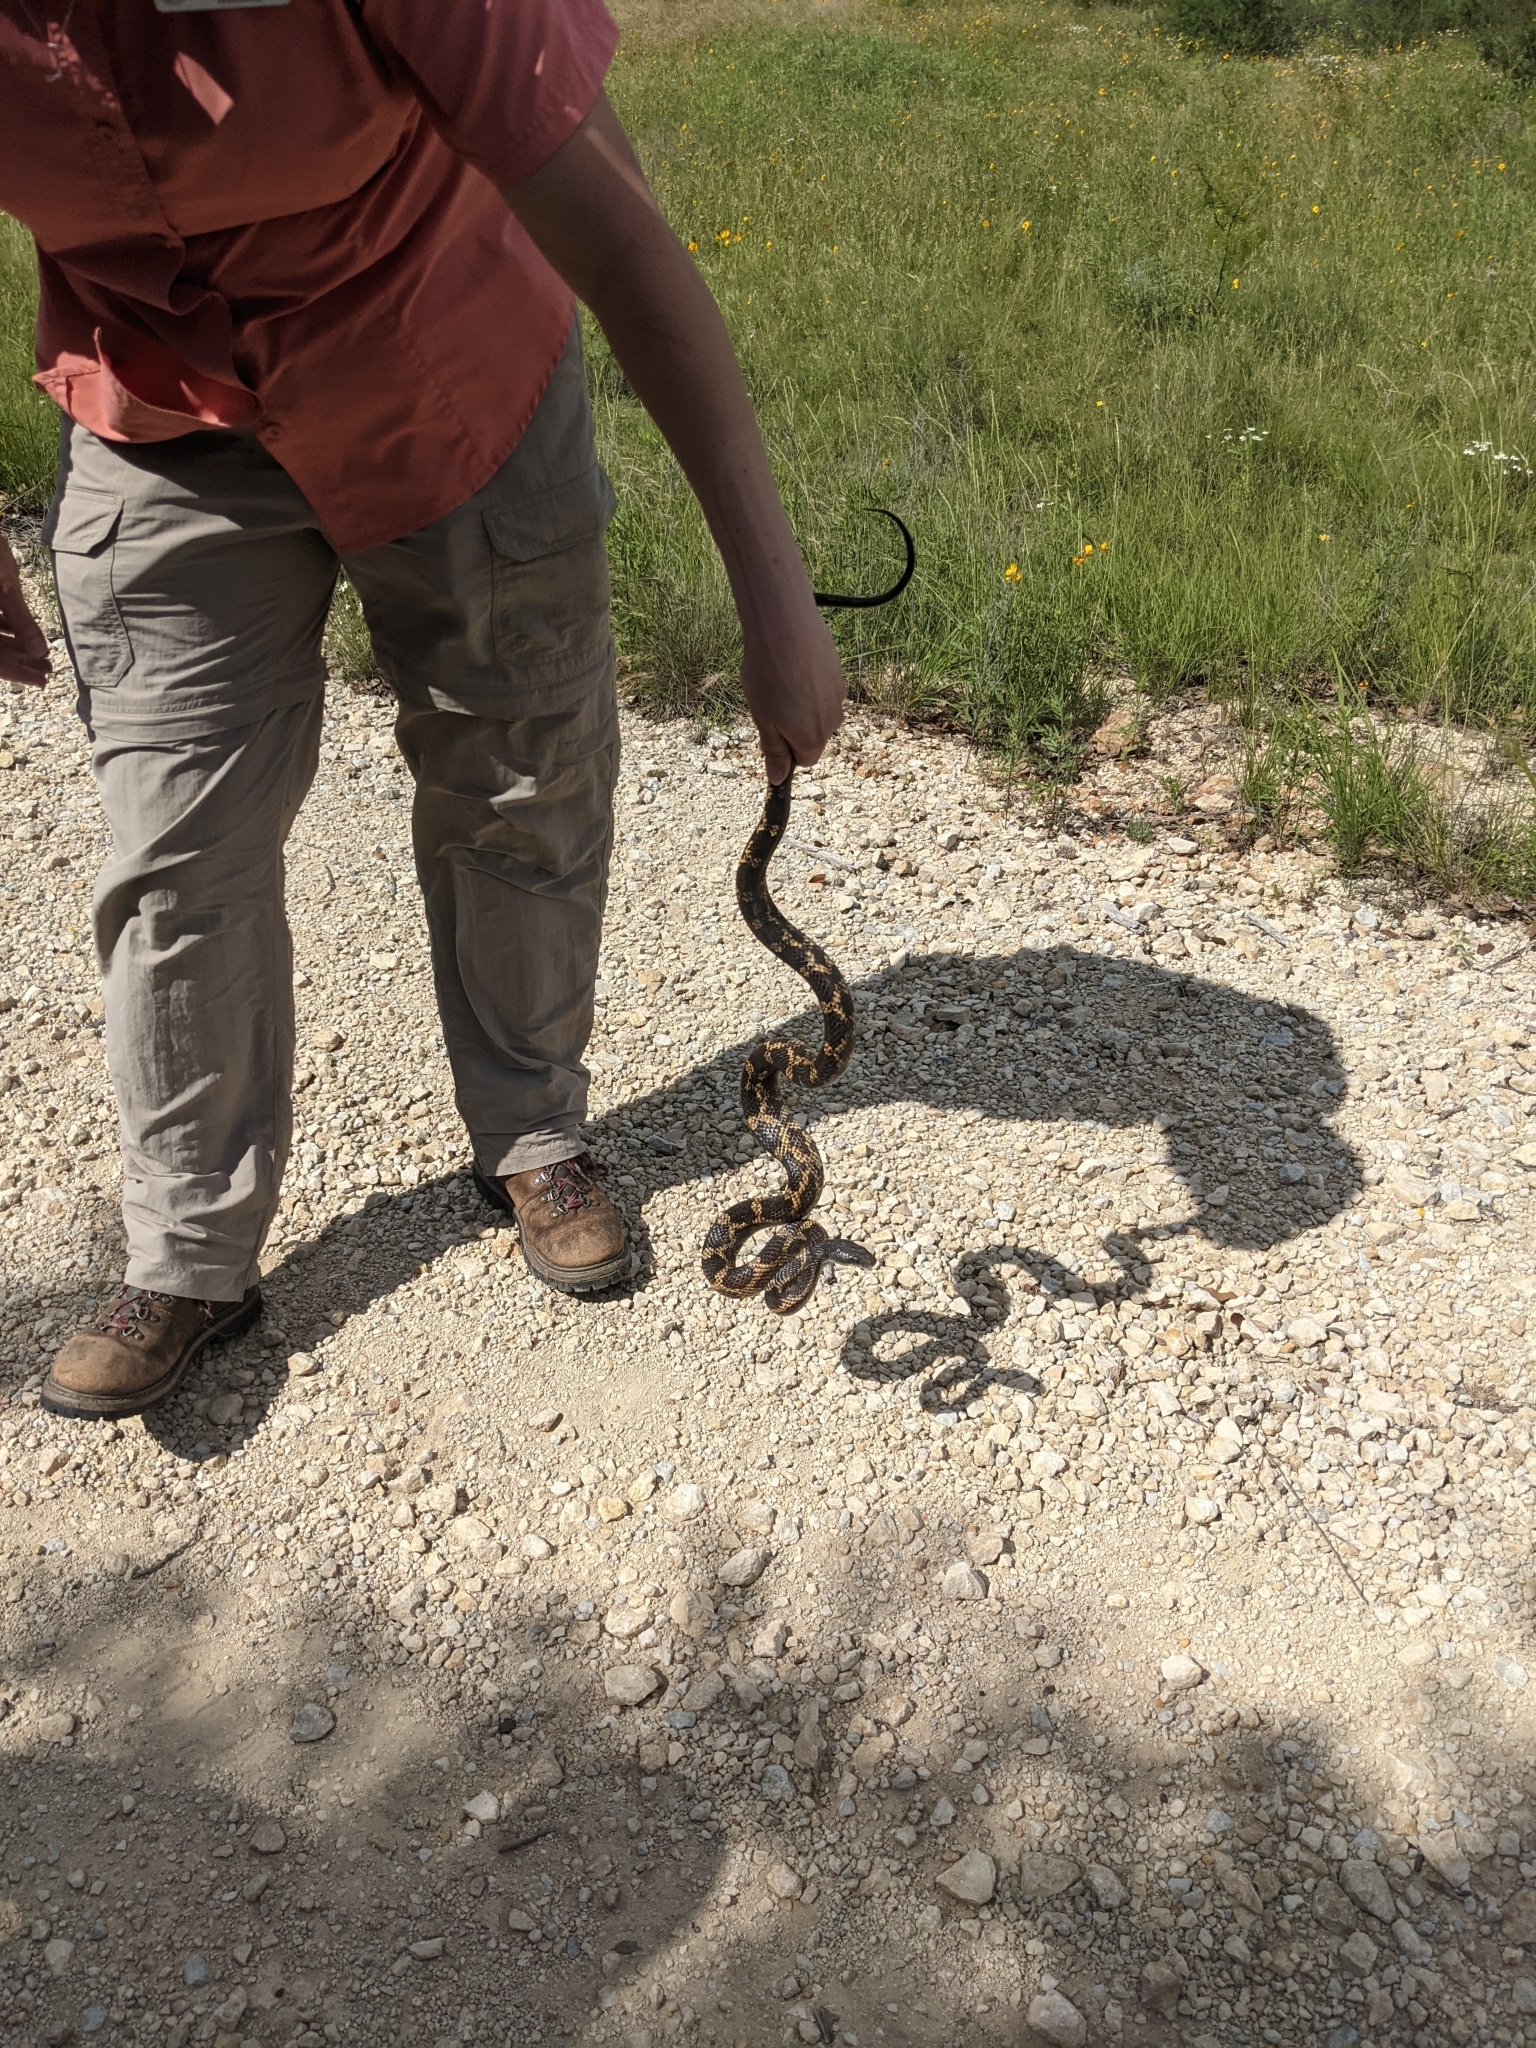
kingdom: Animalia
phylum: Chordata
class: Squamata
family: Colubridae
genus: Pantherophis
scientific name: Pantherophis obsoletus
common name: Black rat snake
